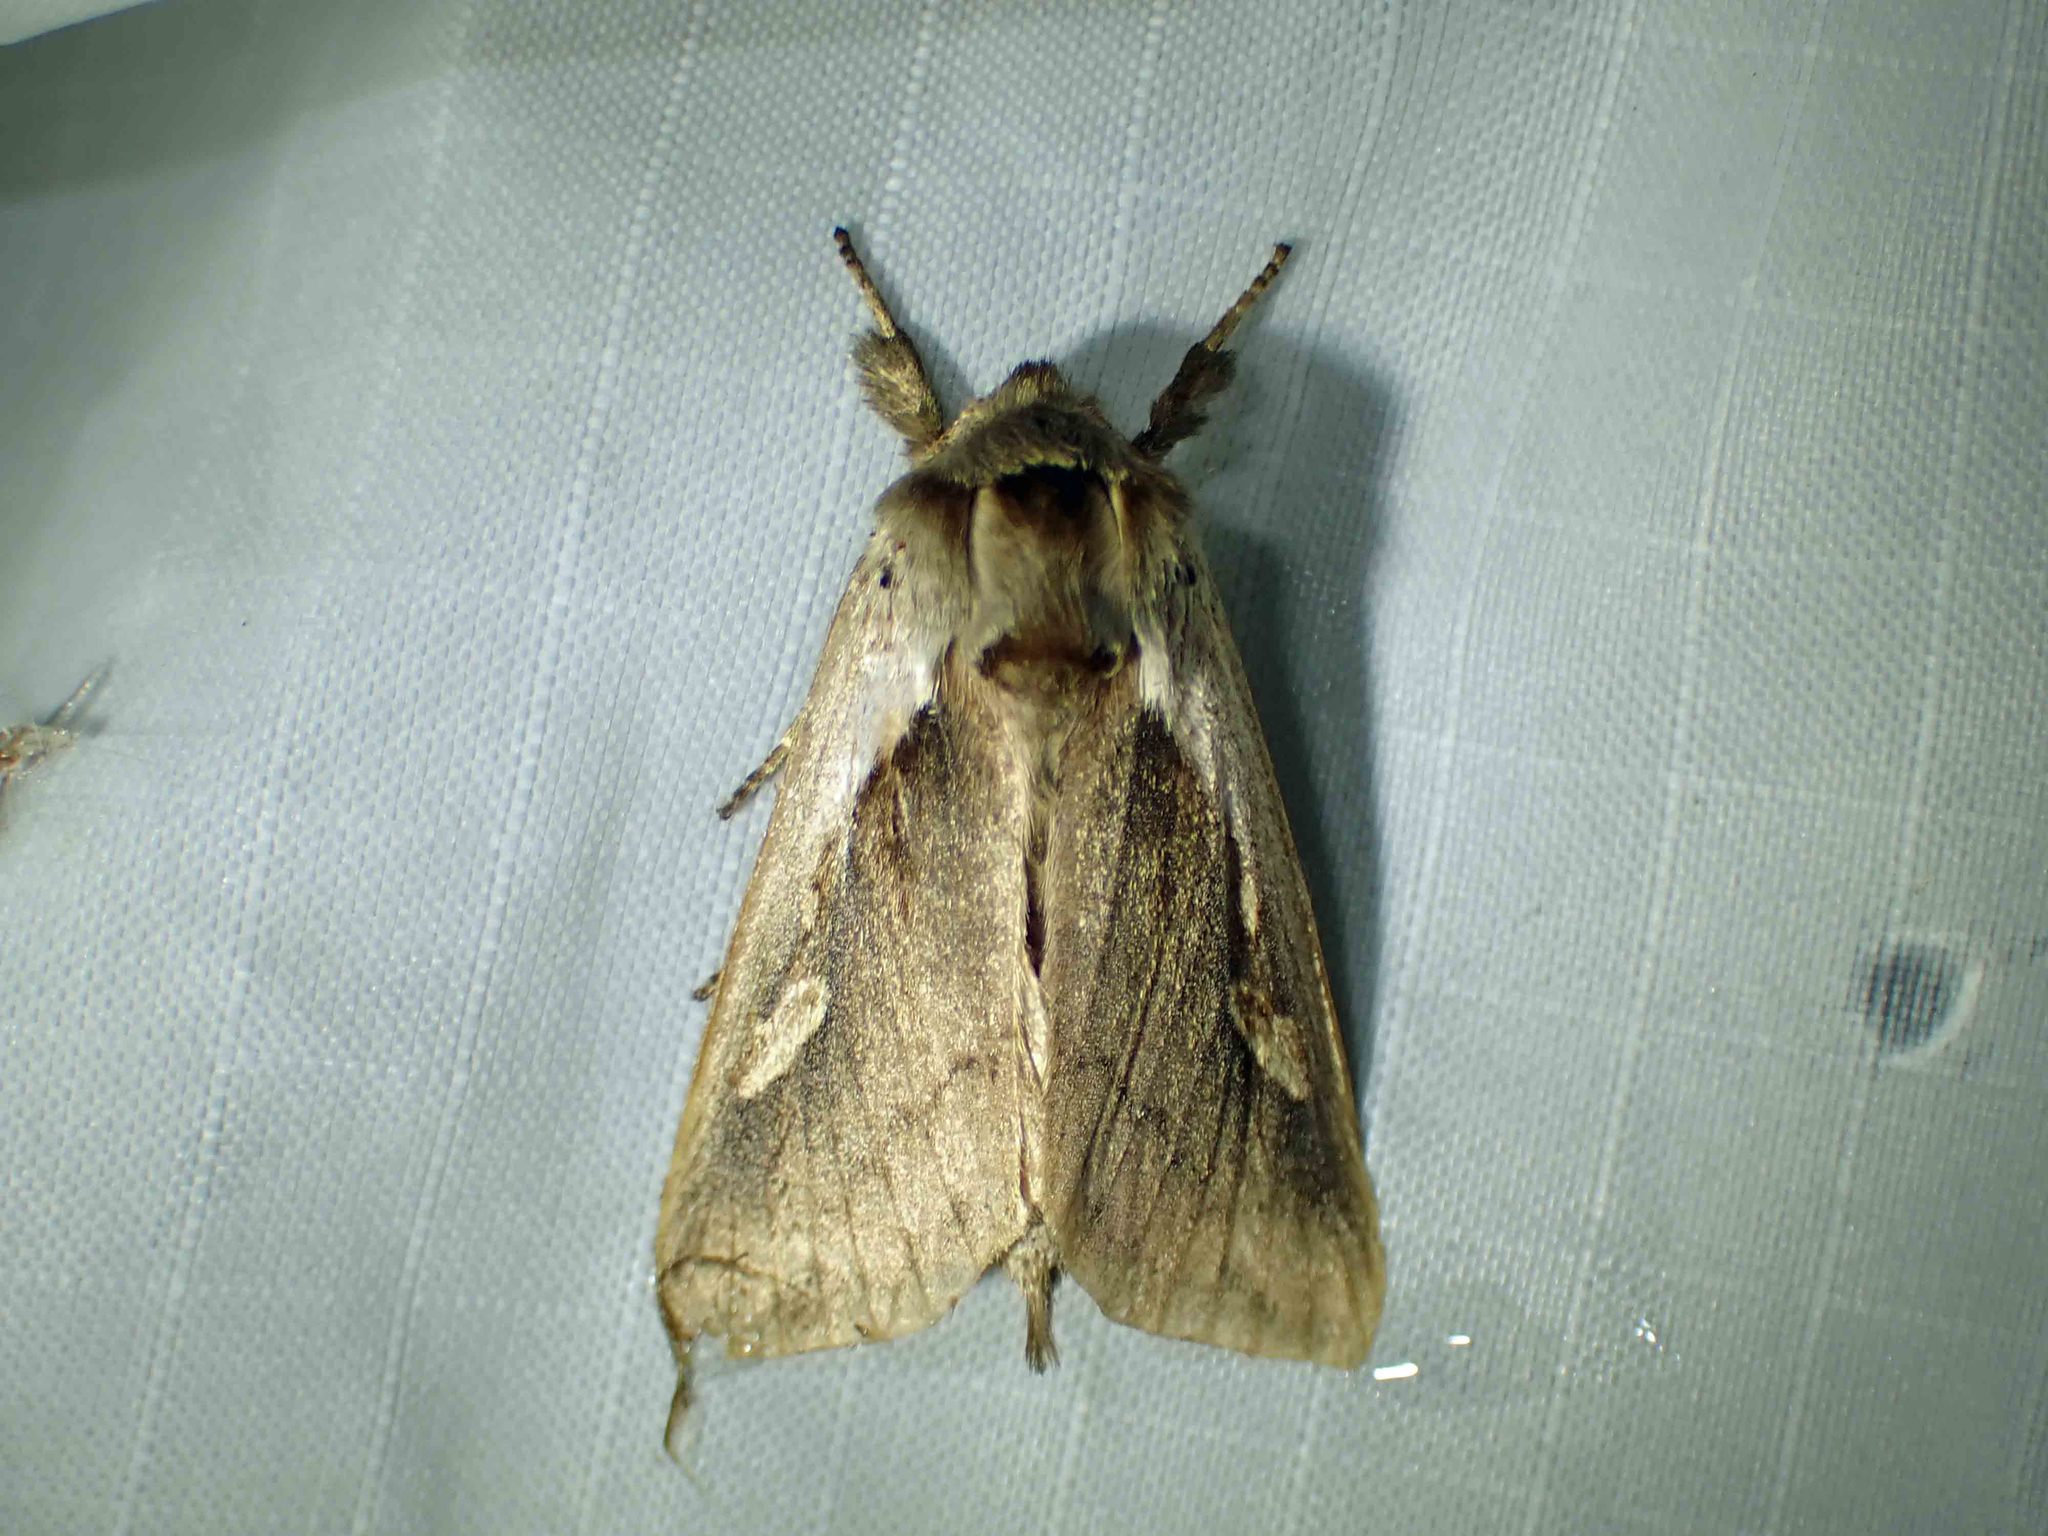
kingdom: Animalia
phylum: Arthropoda
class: Insecta
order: Lepidoptera
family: Noctuidae
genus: Bellura
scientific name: Bellura obliqua
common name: Cattail borer moth
